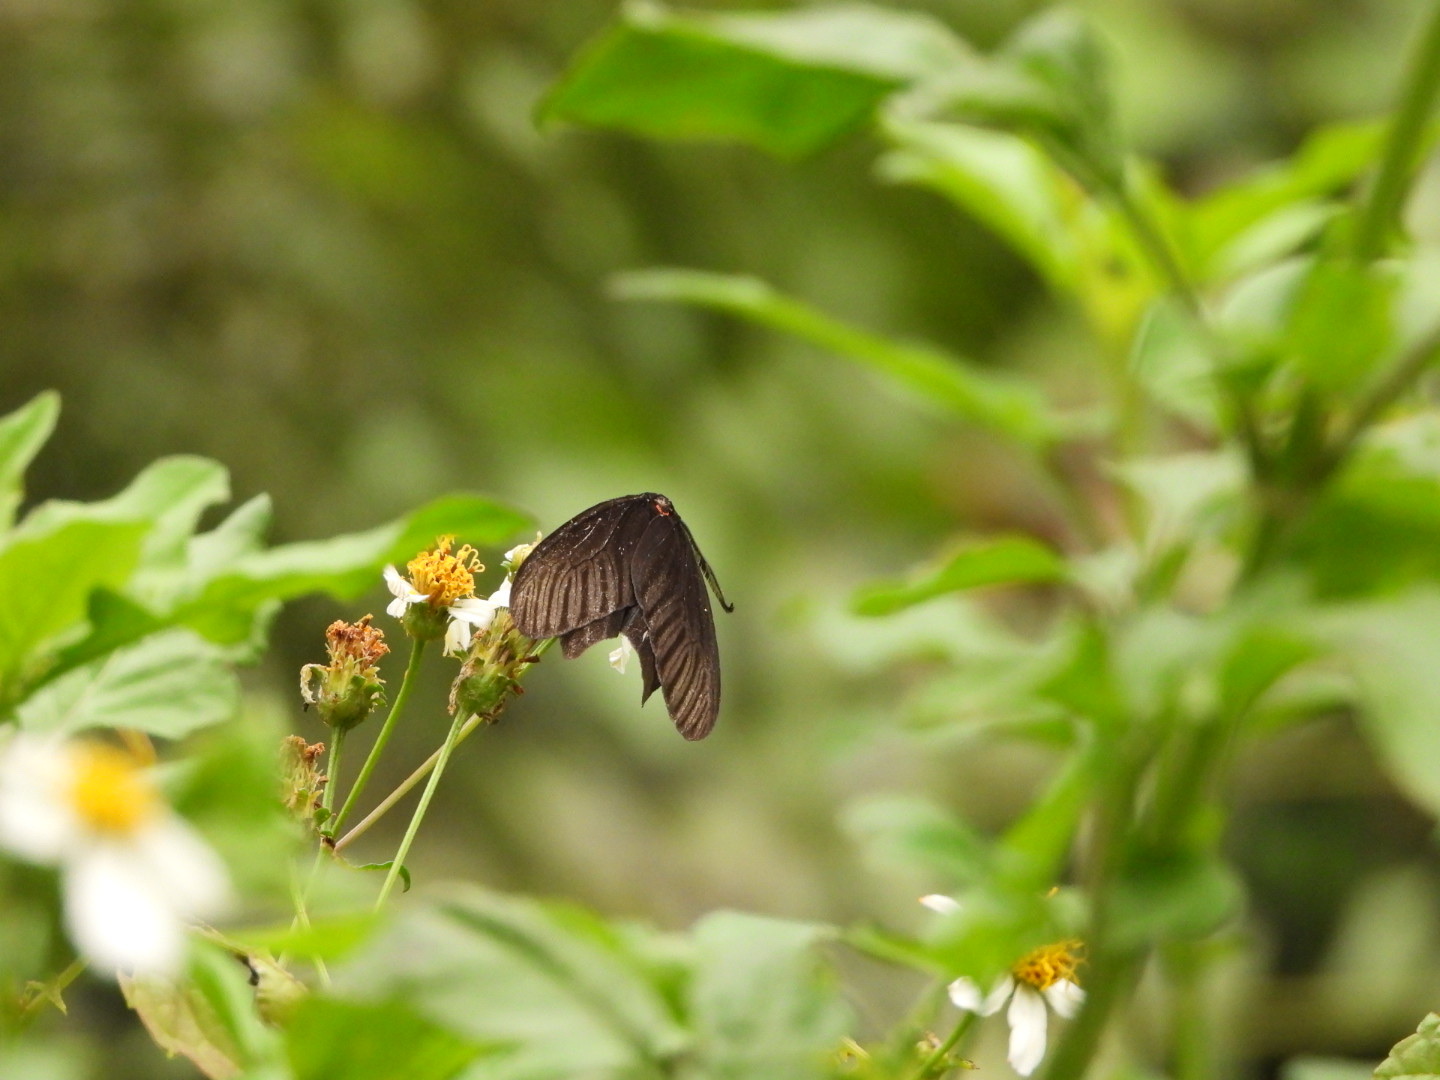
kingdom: Animalia
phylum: Arthropoda
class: Insecta
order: Lepidoptera
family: Zygaenidae
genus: Histia
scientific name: Histia flabellicornis
